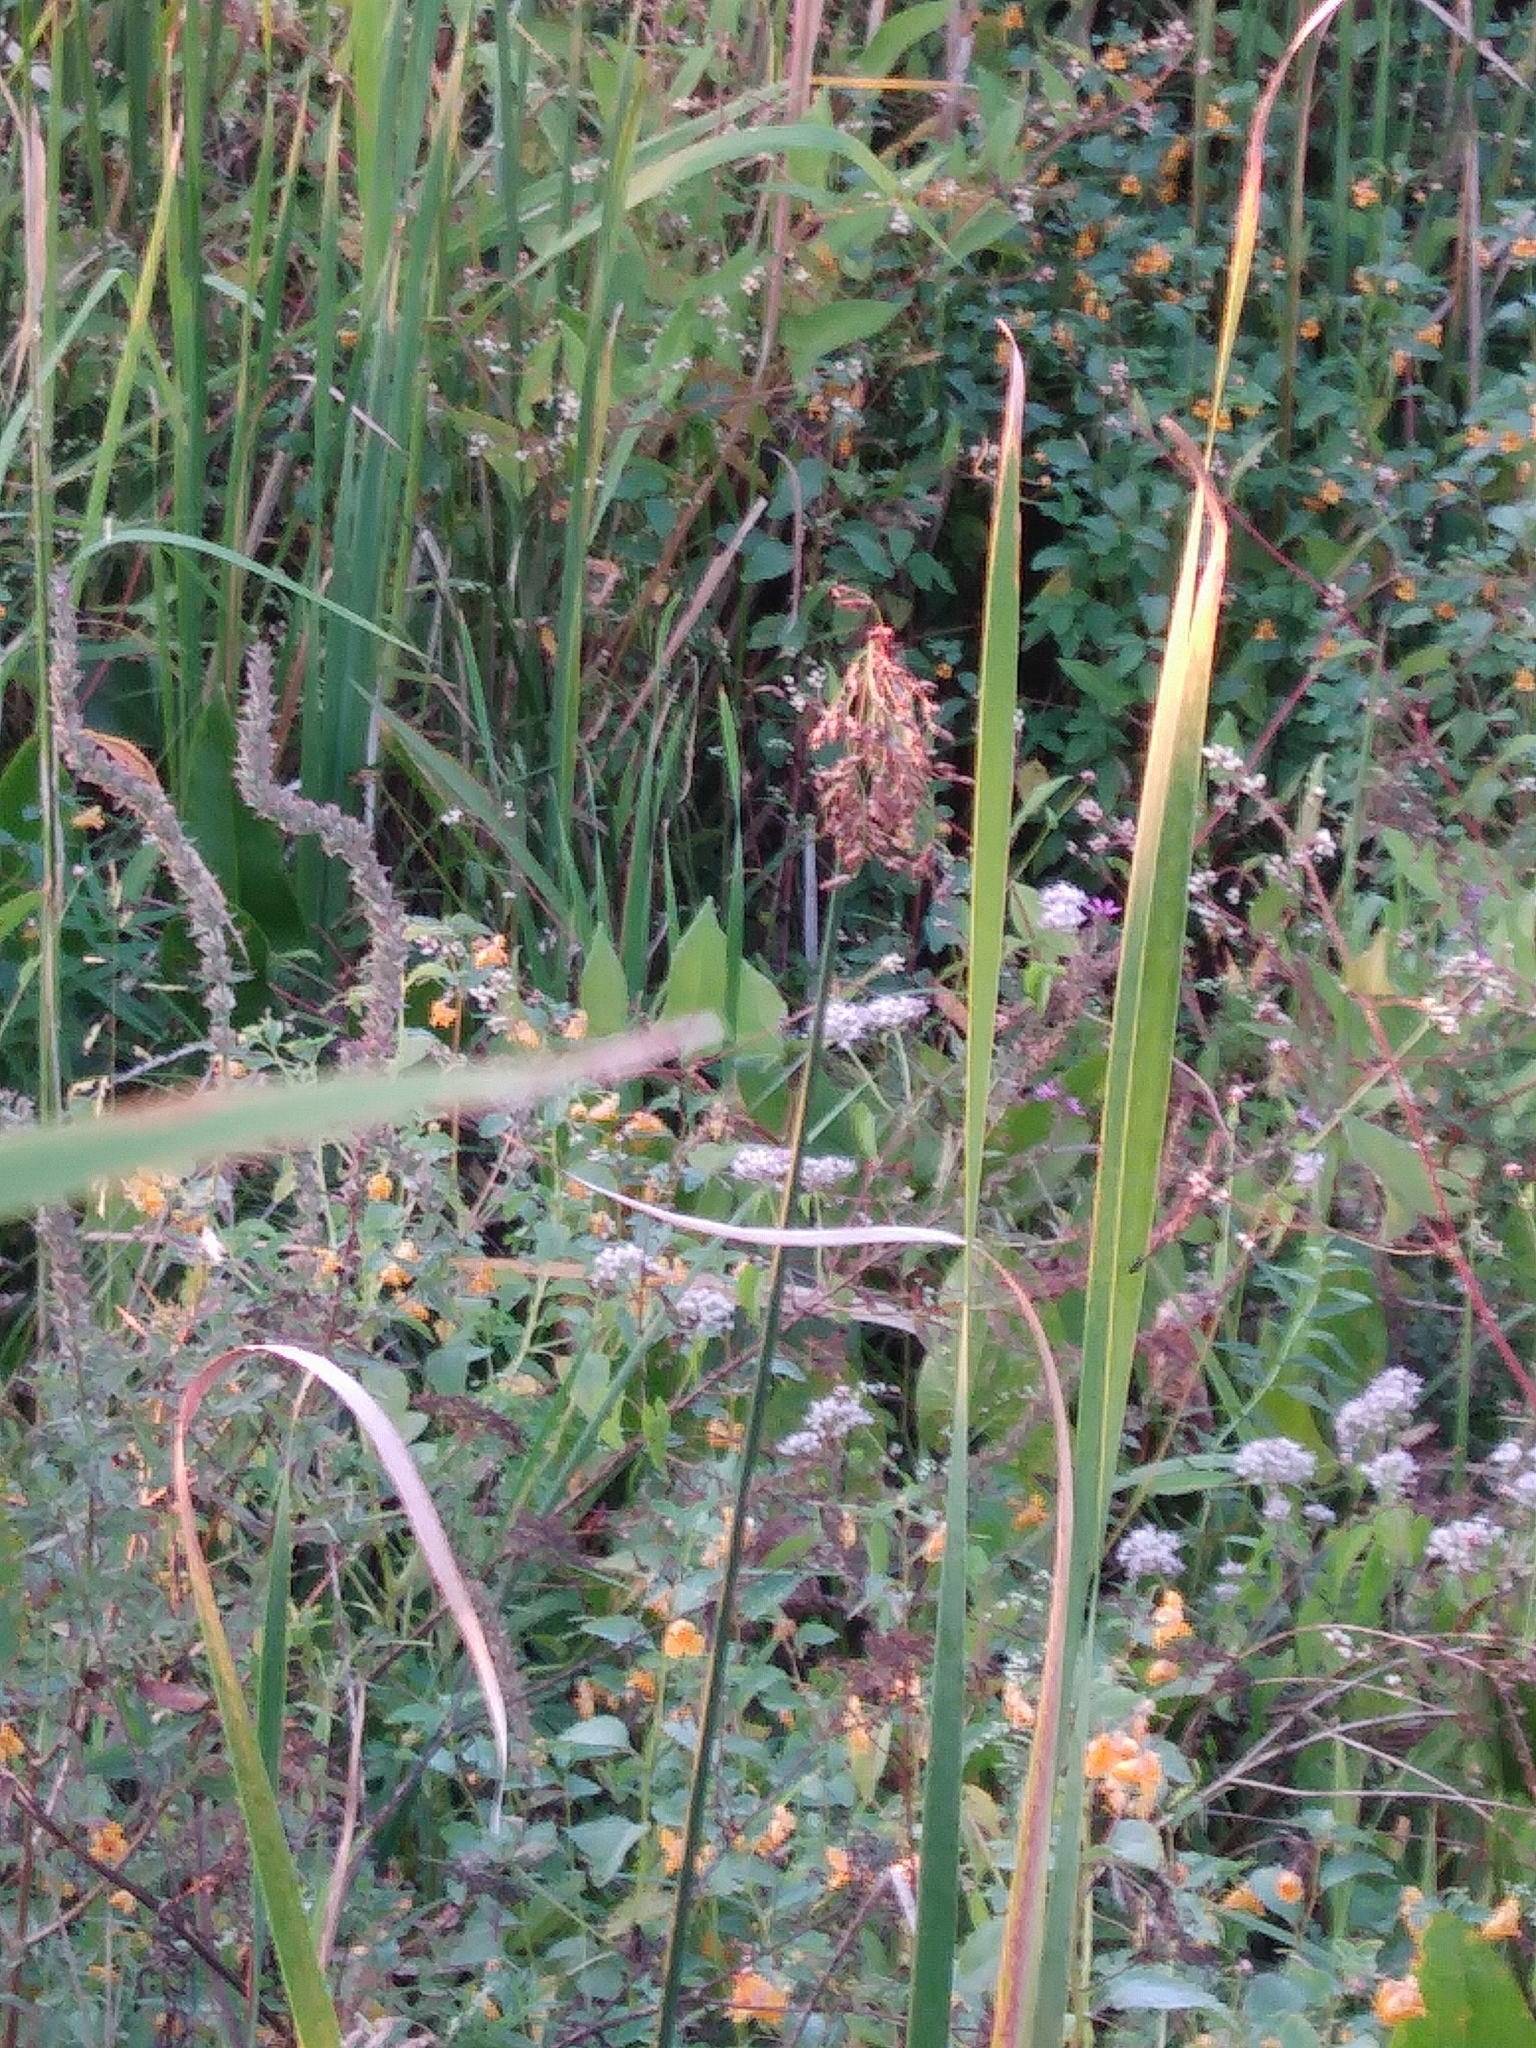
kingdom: Plantae
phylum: Tracheophyta
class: Liliopsida
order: Poales
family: Cyperaceae
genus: Schoenoplectus
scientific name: Schoenoplectus tabernaemontani
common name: Grey club-rush
